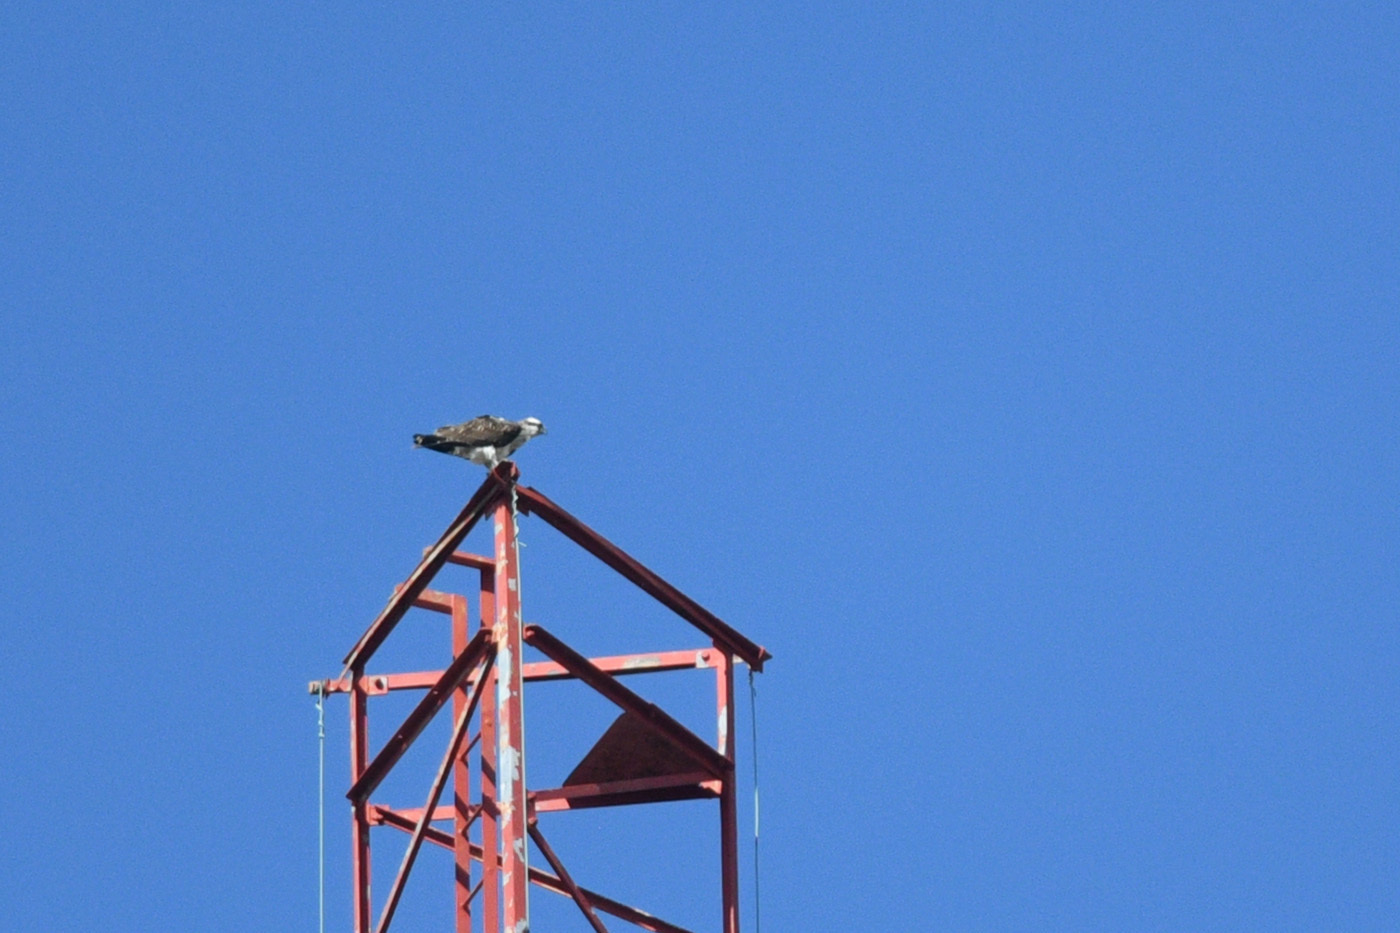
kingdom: Animalia
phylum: Chordata
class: Aves
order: Accipitriformes
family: Pandionidae
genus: Pandion
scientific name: Pandion haliaetus
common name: Osprey
